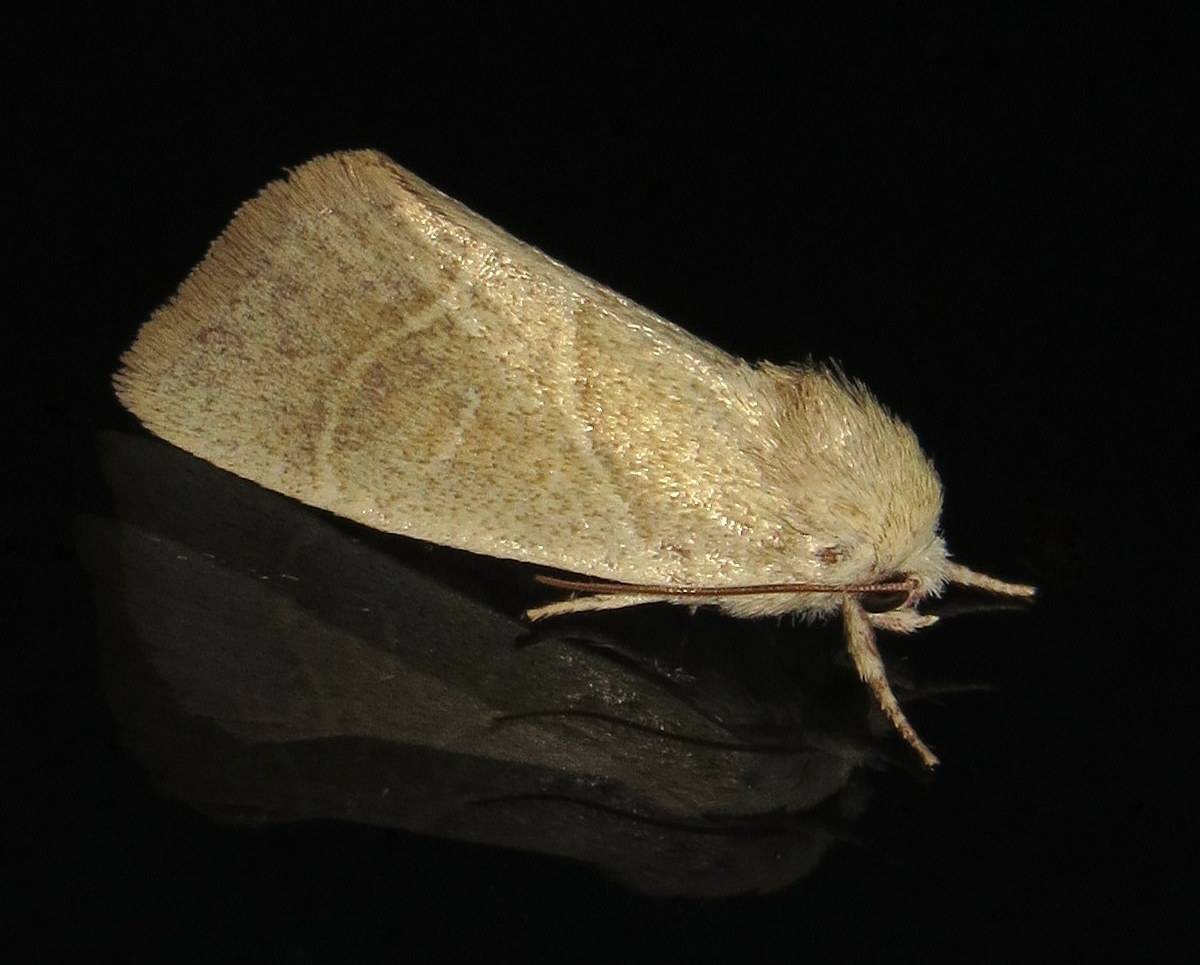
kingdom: Animalia
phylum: Arthropoda
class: Insecta
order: Lepidoptera
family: Noctuidae
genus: Cosmia
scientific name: Cosmia calami
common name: American dun-bar moth
